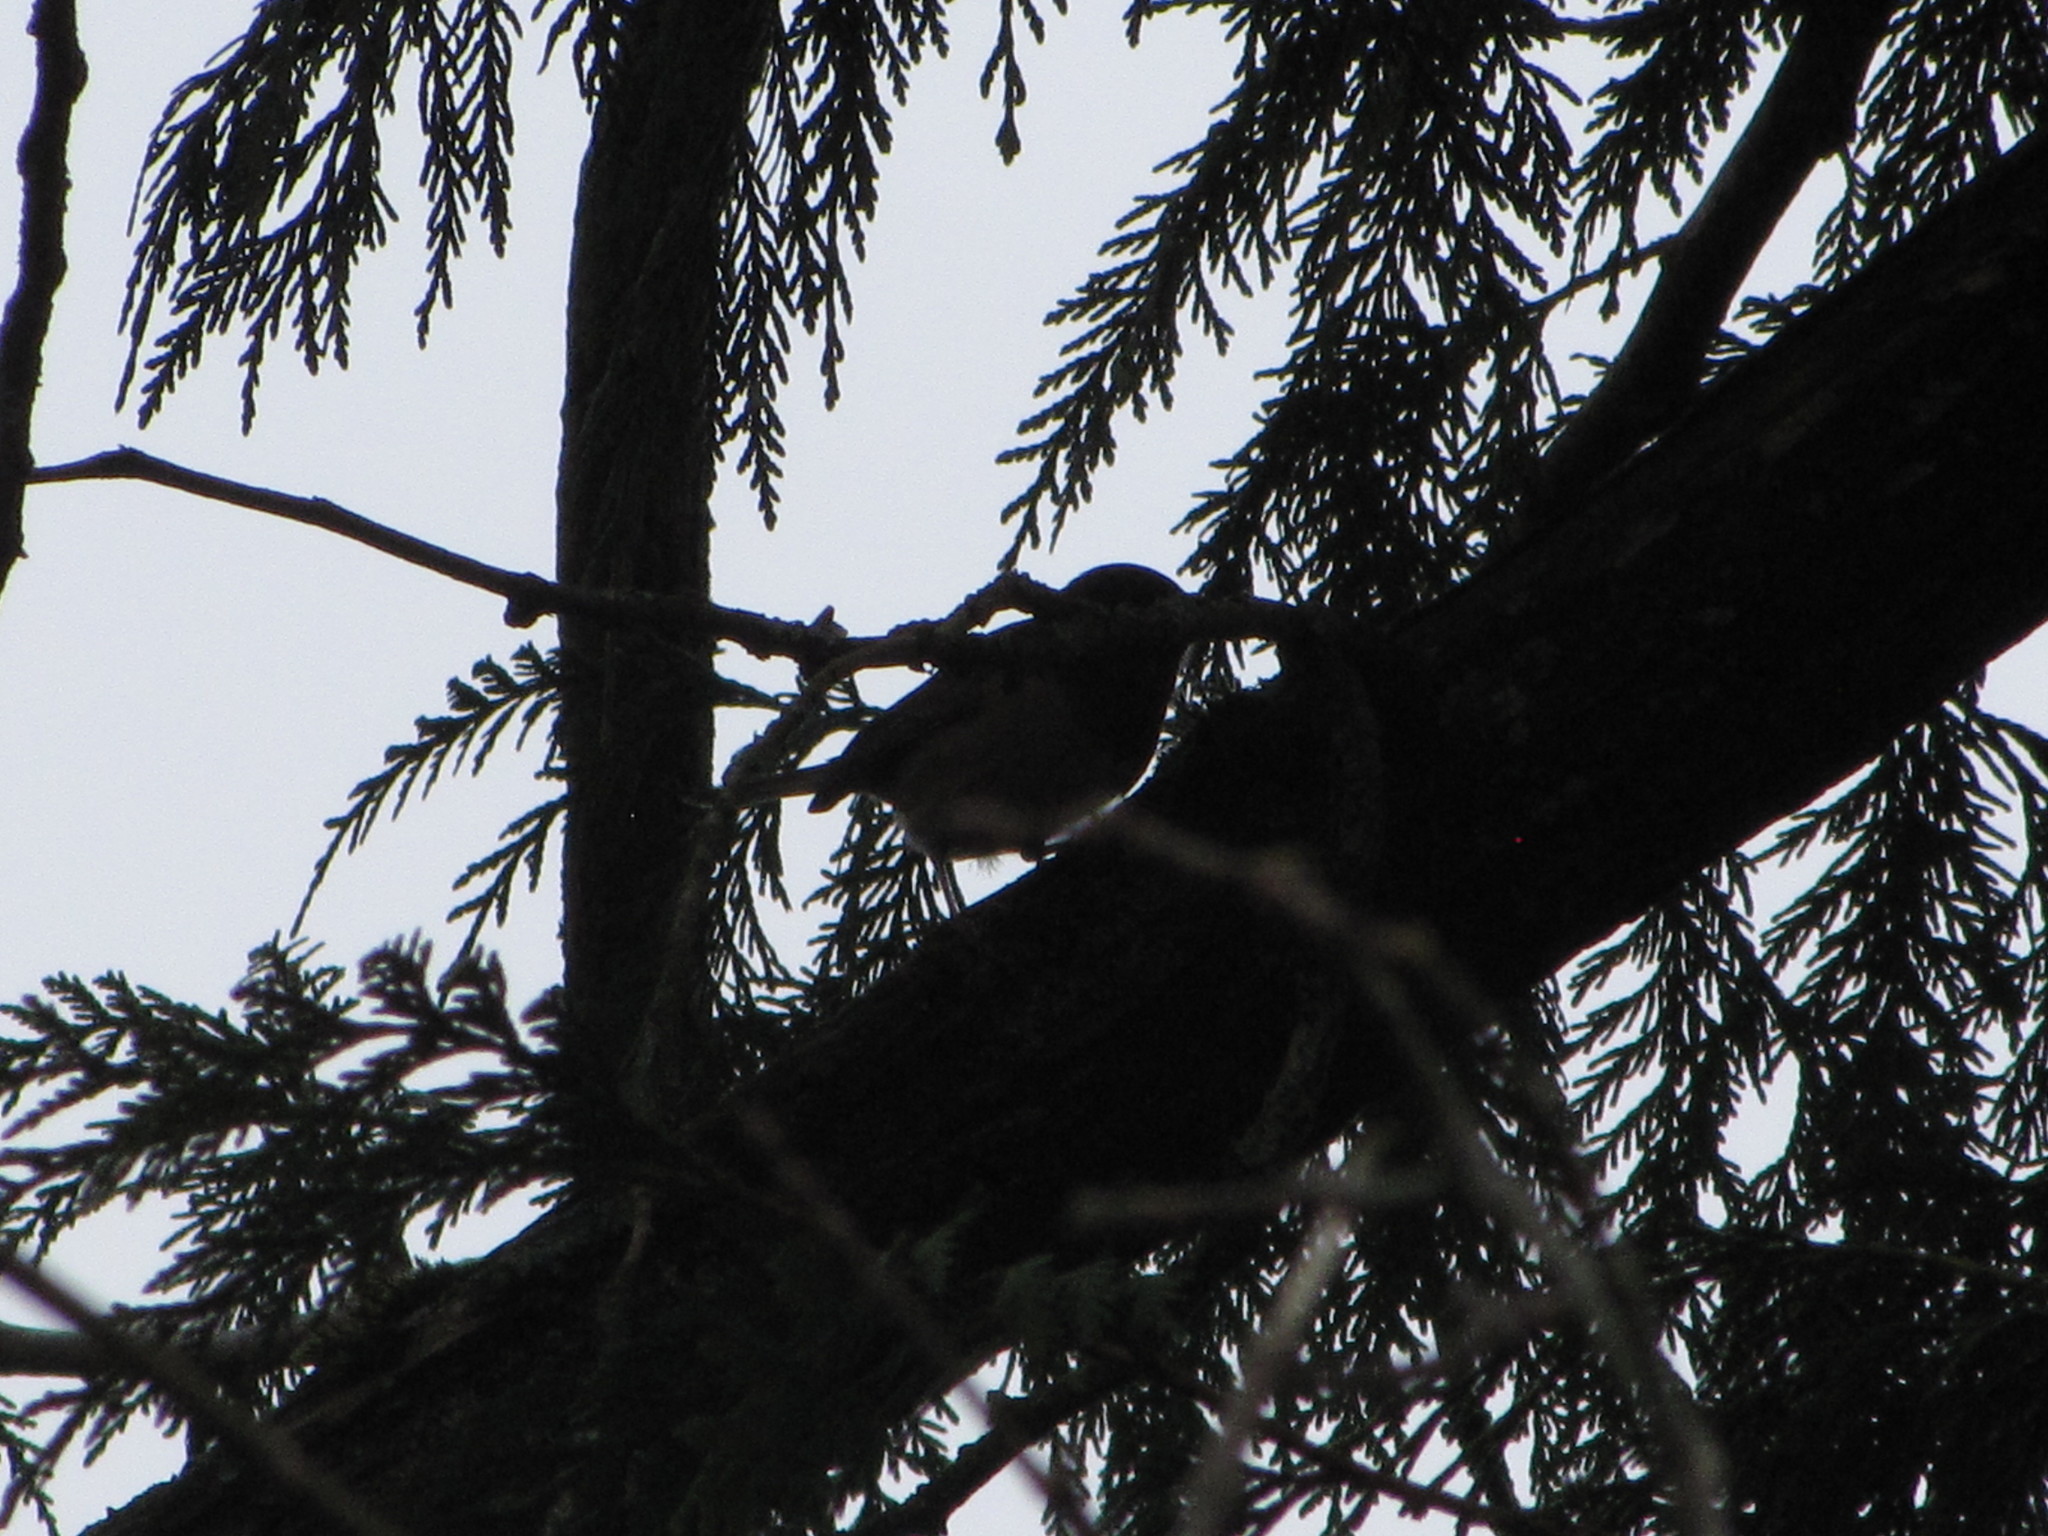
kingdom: Animalia
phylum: Chordata
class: Aves
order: Passeriformes
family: Passerellidae
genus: Junco
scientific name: Junco hyemalis
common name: Dark-eyed junco
